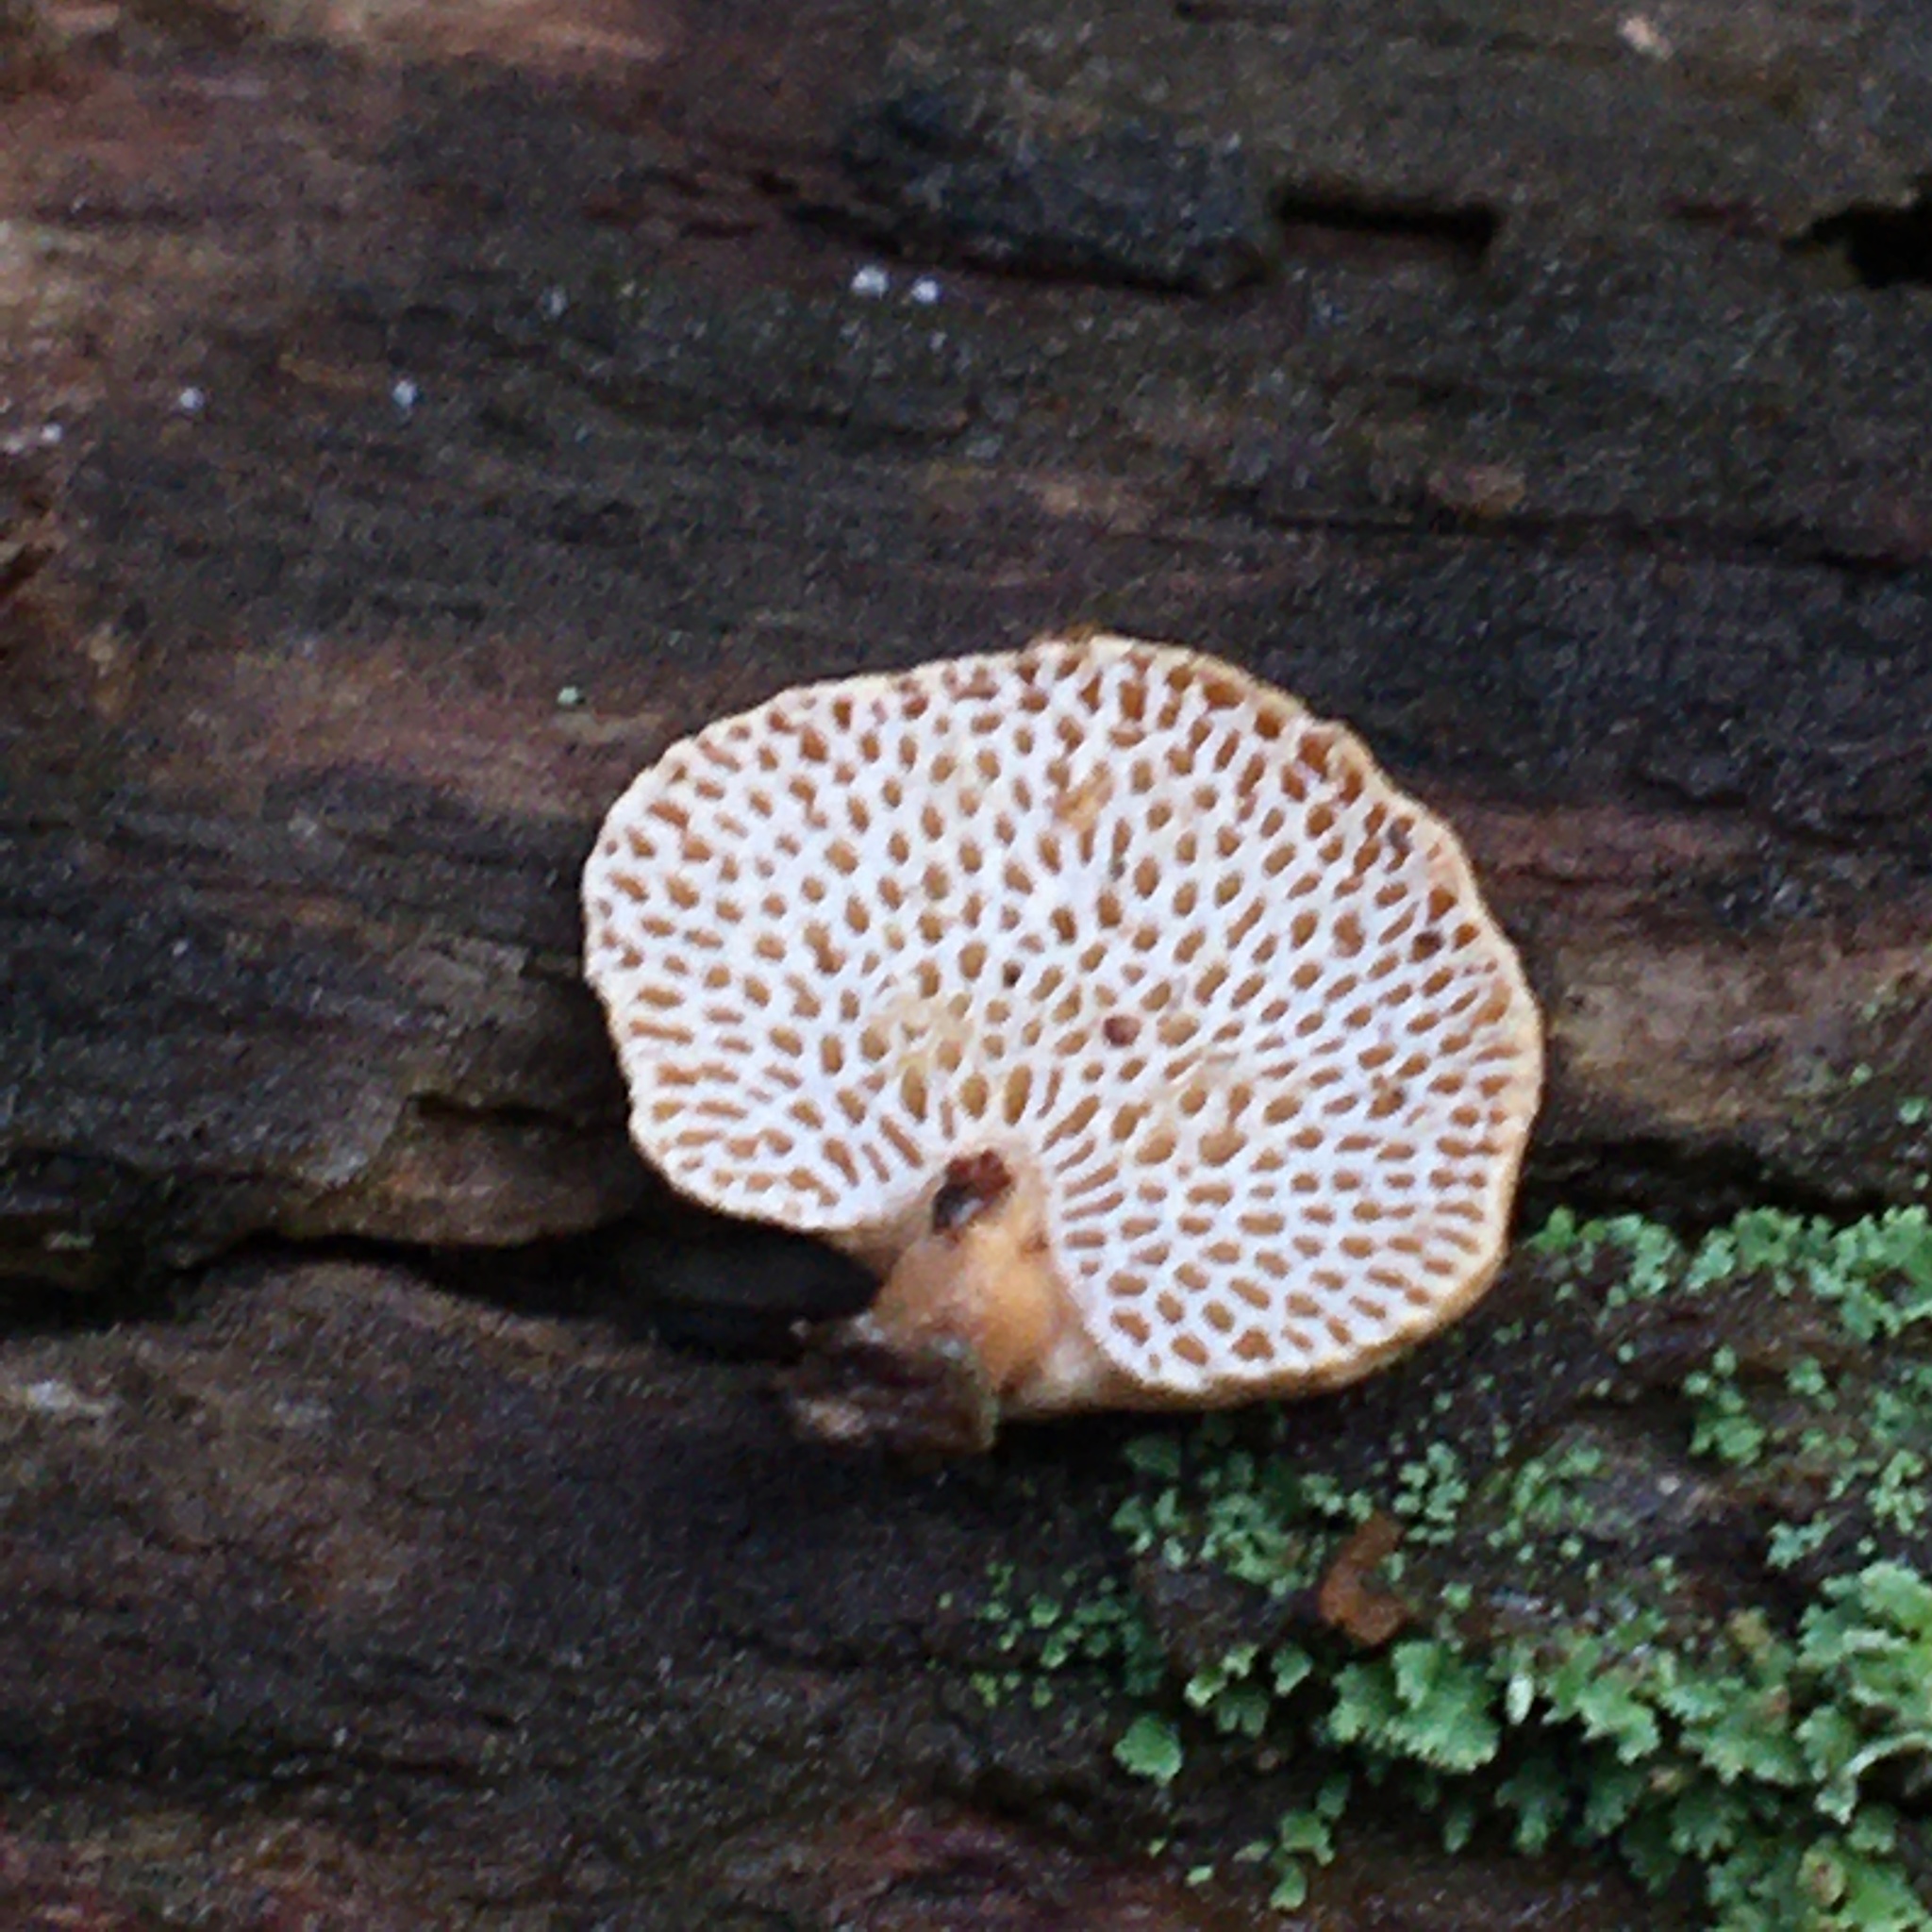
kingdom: Fungi
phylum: Basidiomycota
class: Agaricomycetes
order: Agaricales
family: Mycenaceae
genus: Panellus
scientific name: Panellus pusillus
